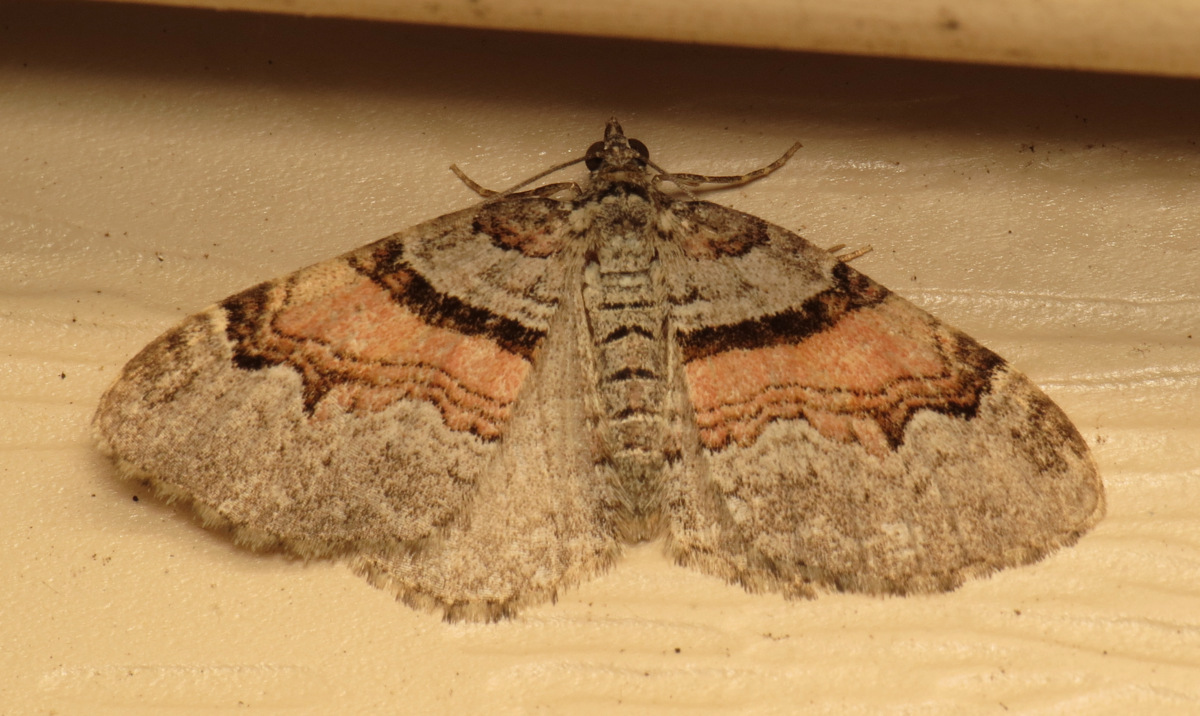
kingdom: Animalia
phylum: Arthropoda
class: Insecta
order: Lepidoptera
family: Geometridae
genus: Xanthorhoe
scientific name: Xanthorhoe labradorensis
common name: Labrador carpet
